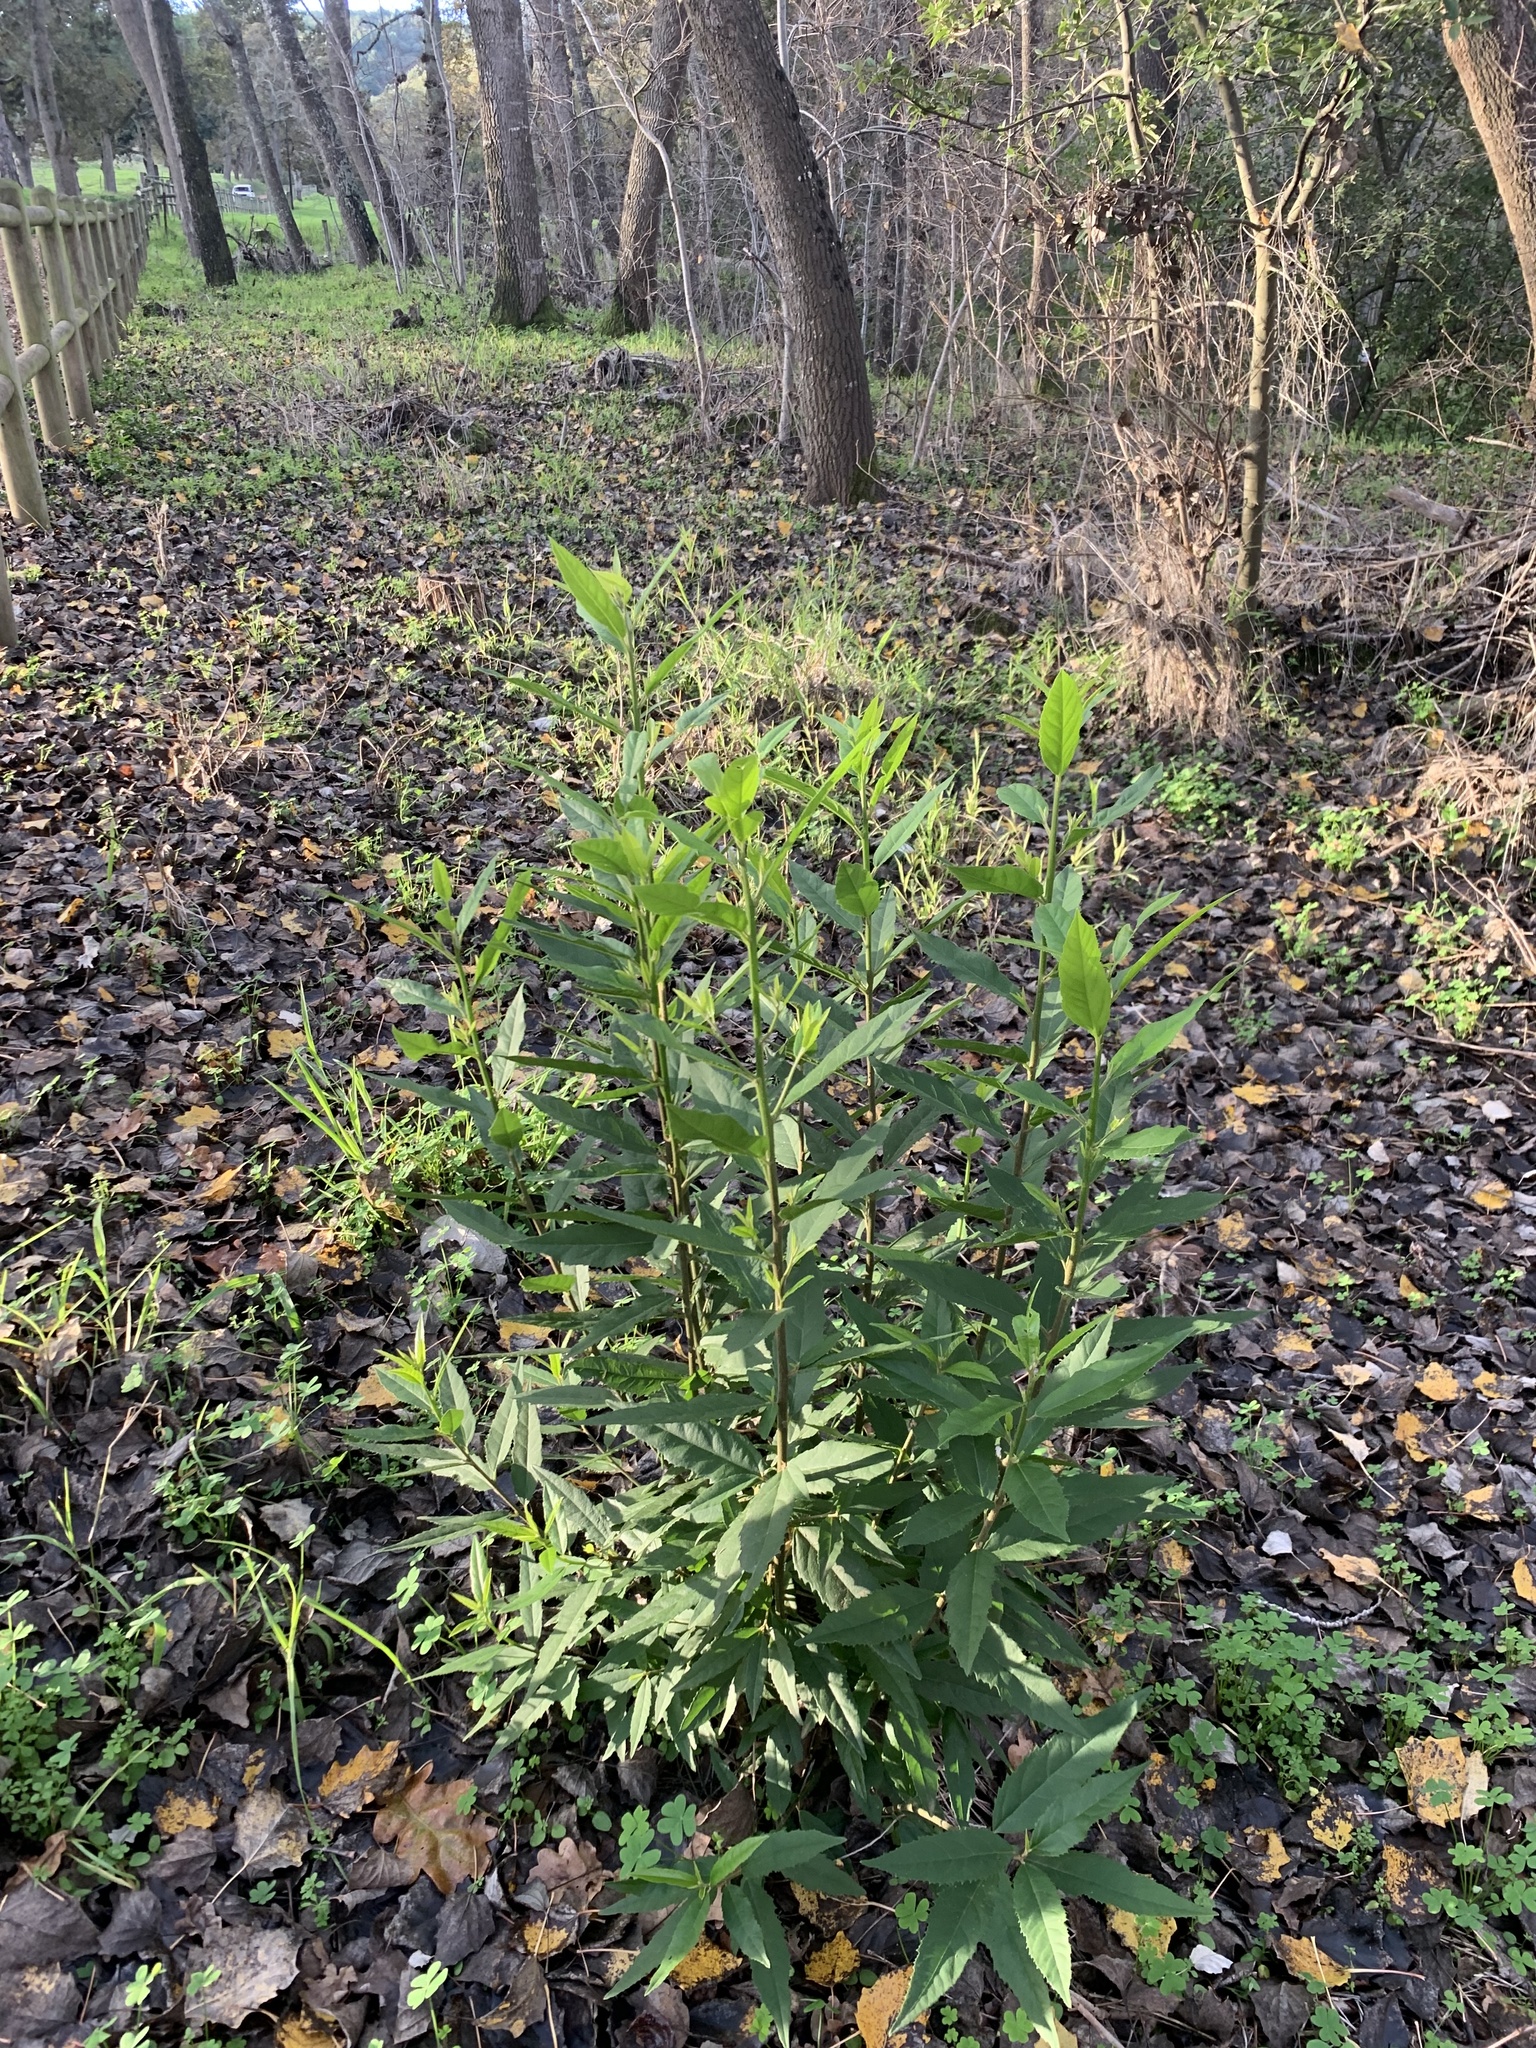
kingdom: Plantae
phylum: Tracheophyta
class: Magnoliopsida
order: Malpighiales
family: Achariaceae
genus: Kiggelaria
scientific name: Kiggelaria africana
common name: Wild peach
